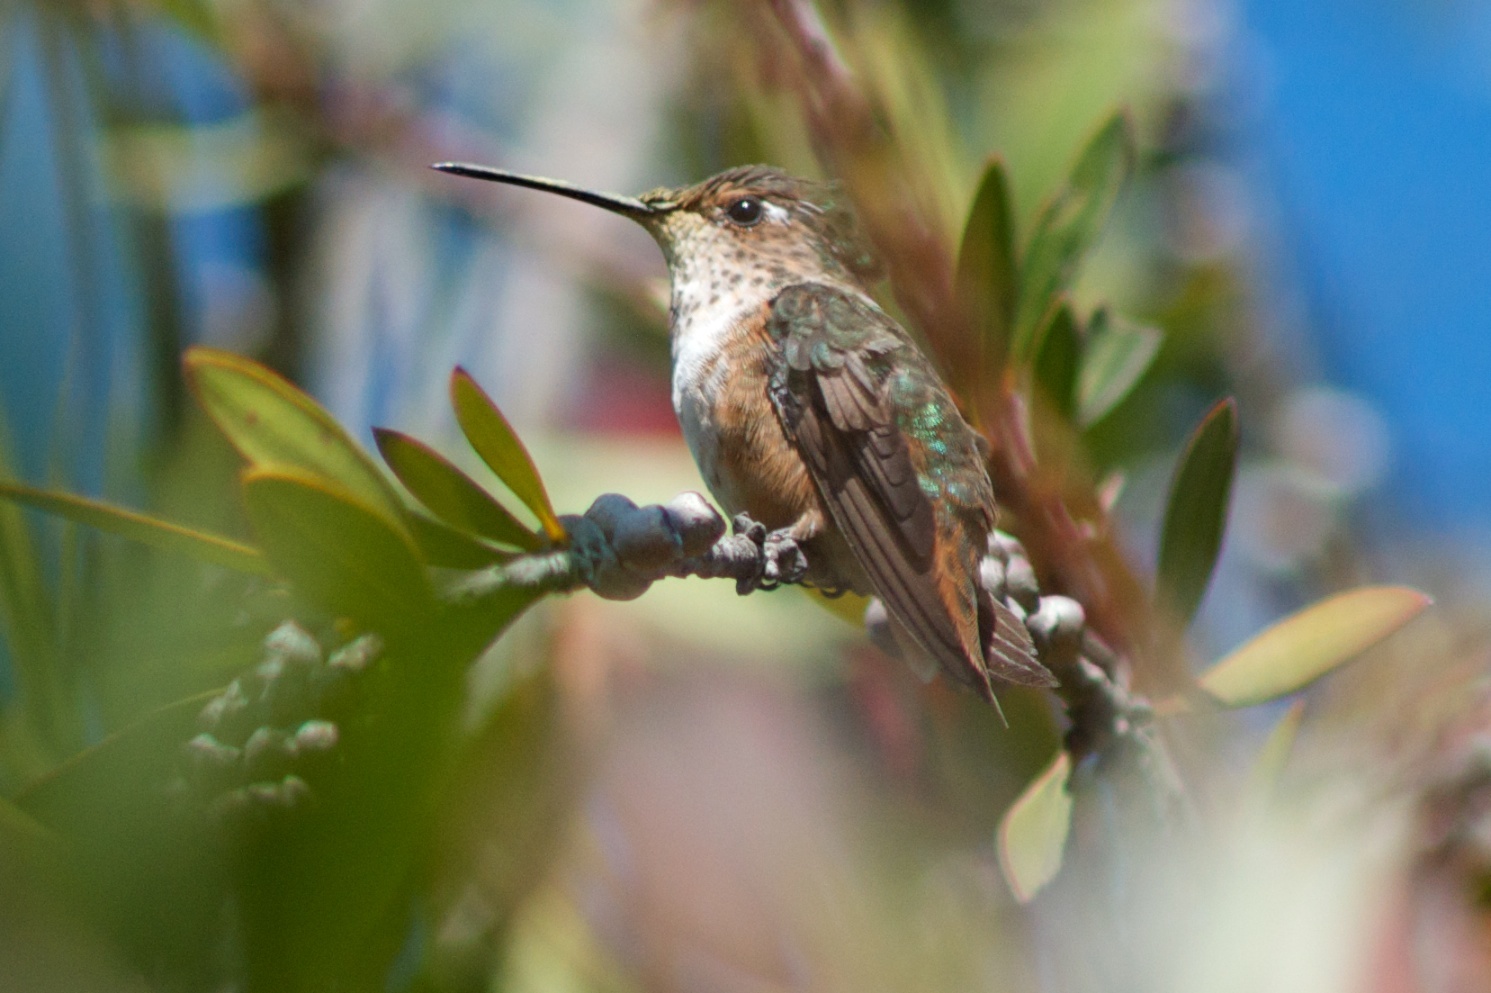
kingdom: Animalia
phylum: Chordata
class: Aves
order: Apodiformes
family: Trochilidae
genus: Selasphorus
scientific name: Selasphorus sasin
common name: Allen's hummingbird
